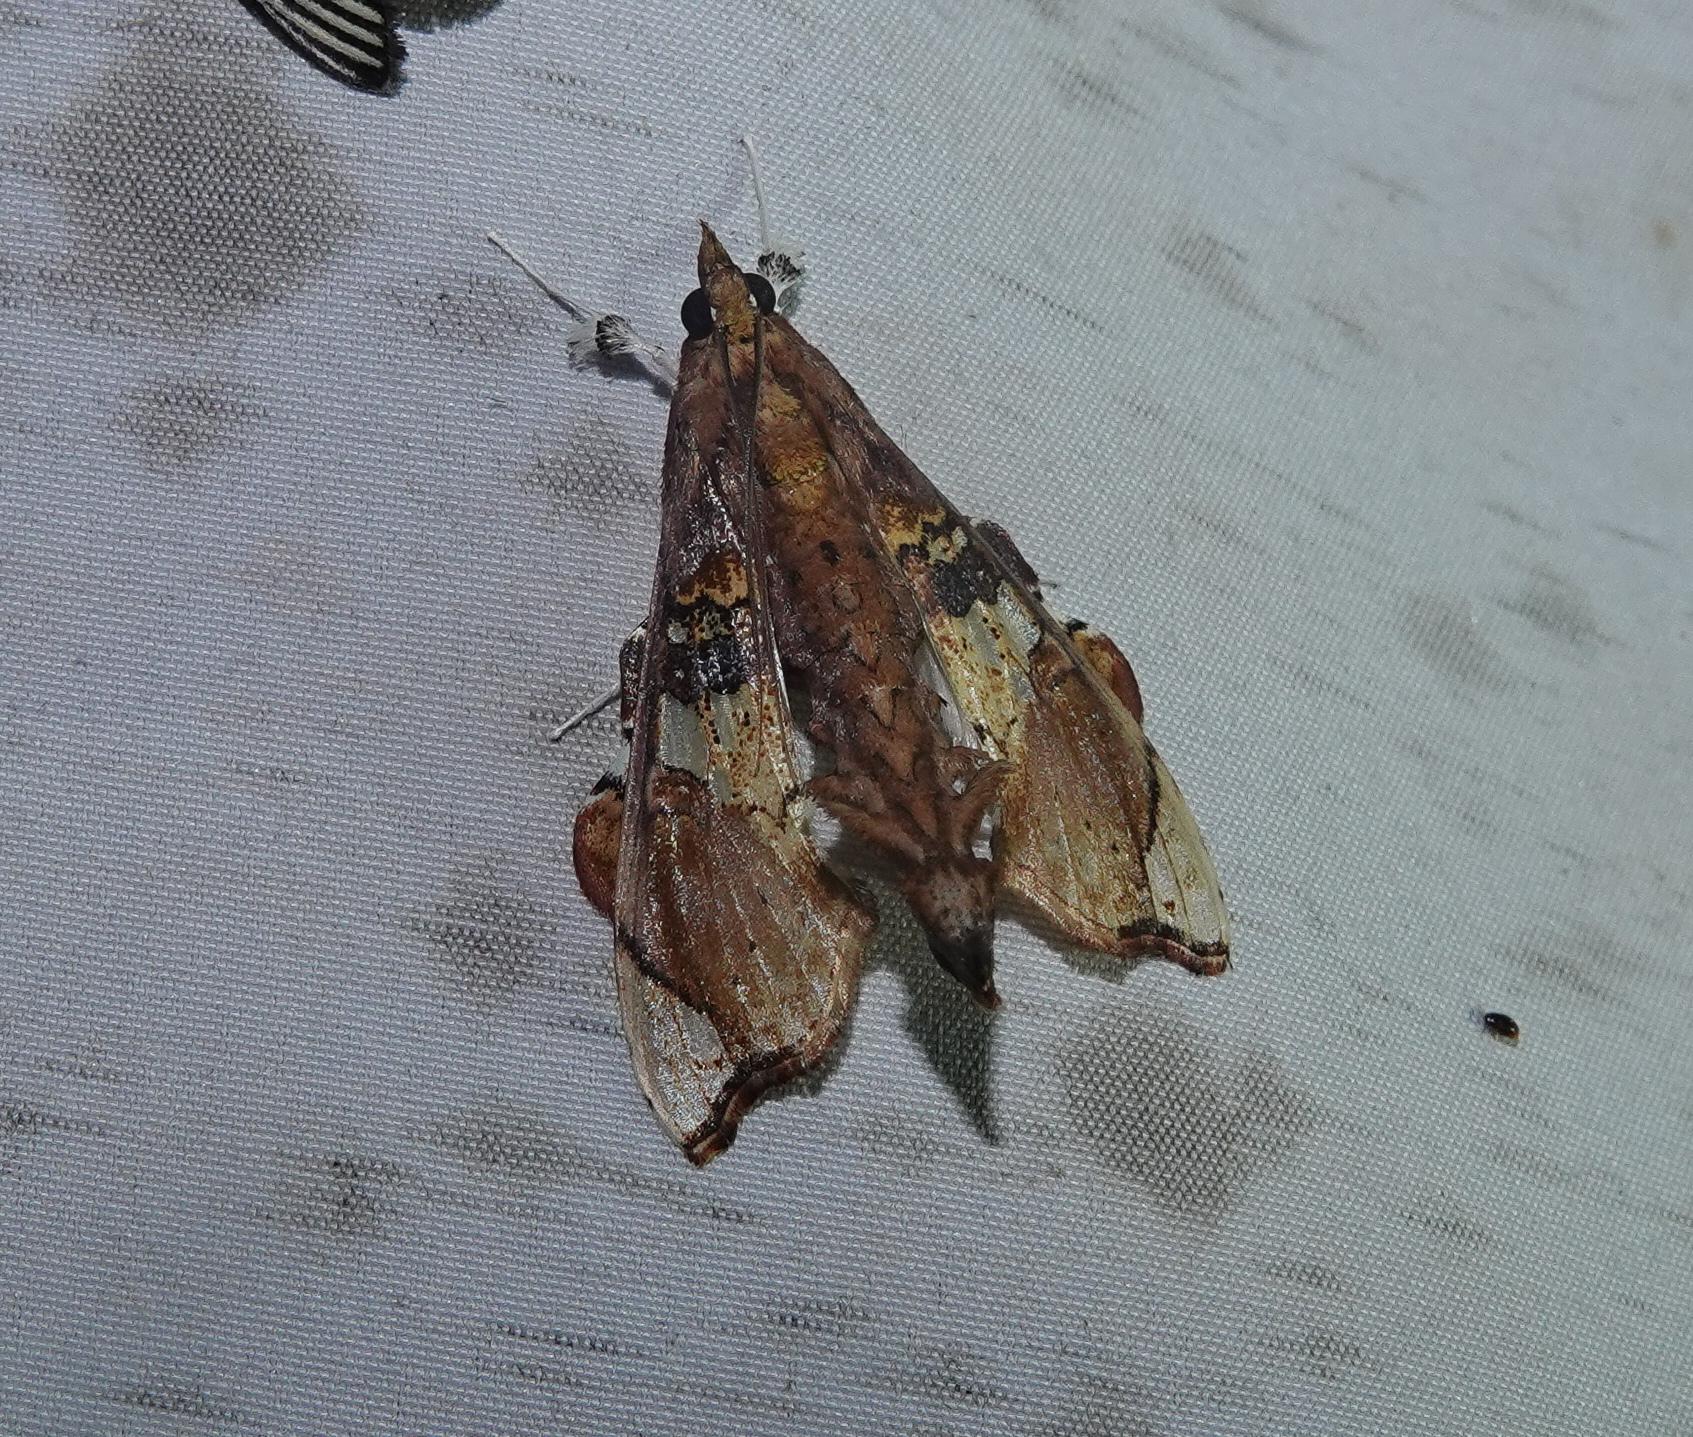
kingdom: Animalia
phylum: Arthropoda
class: Insecta
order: Lepidoptera
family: Crambidae
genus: Terastia
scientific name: Terastia egialealis
